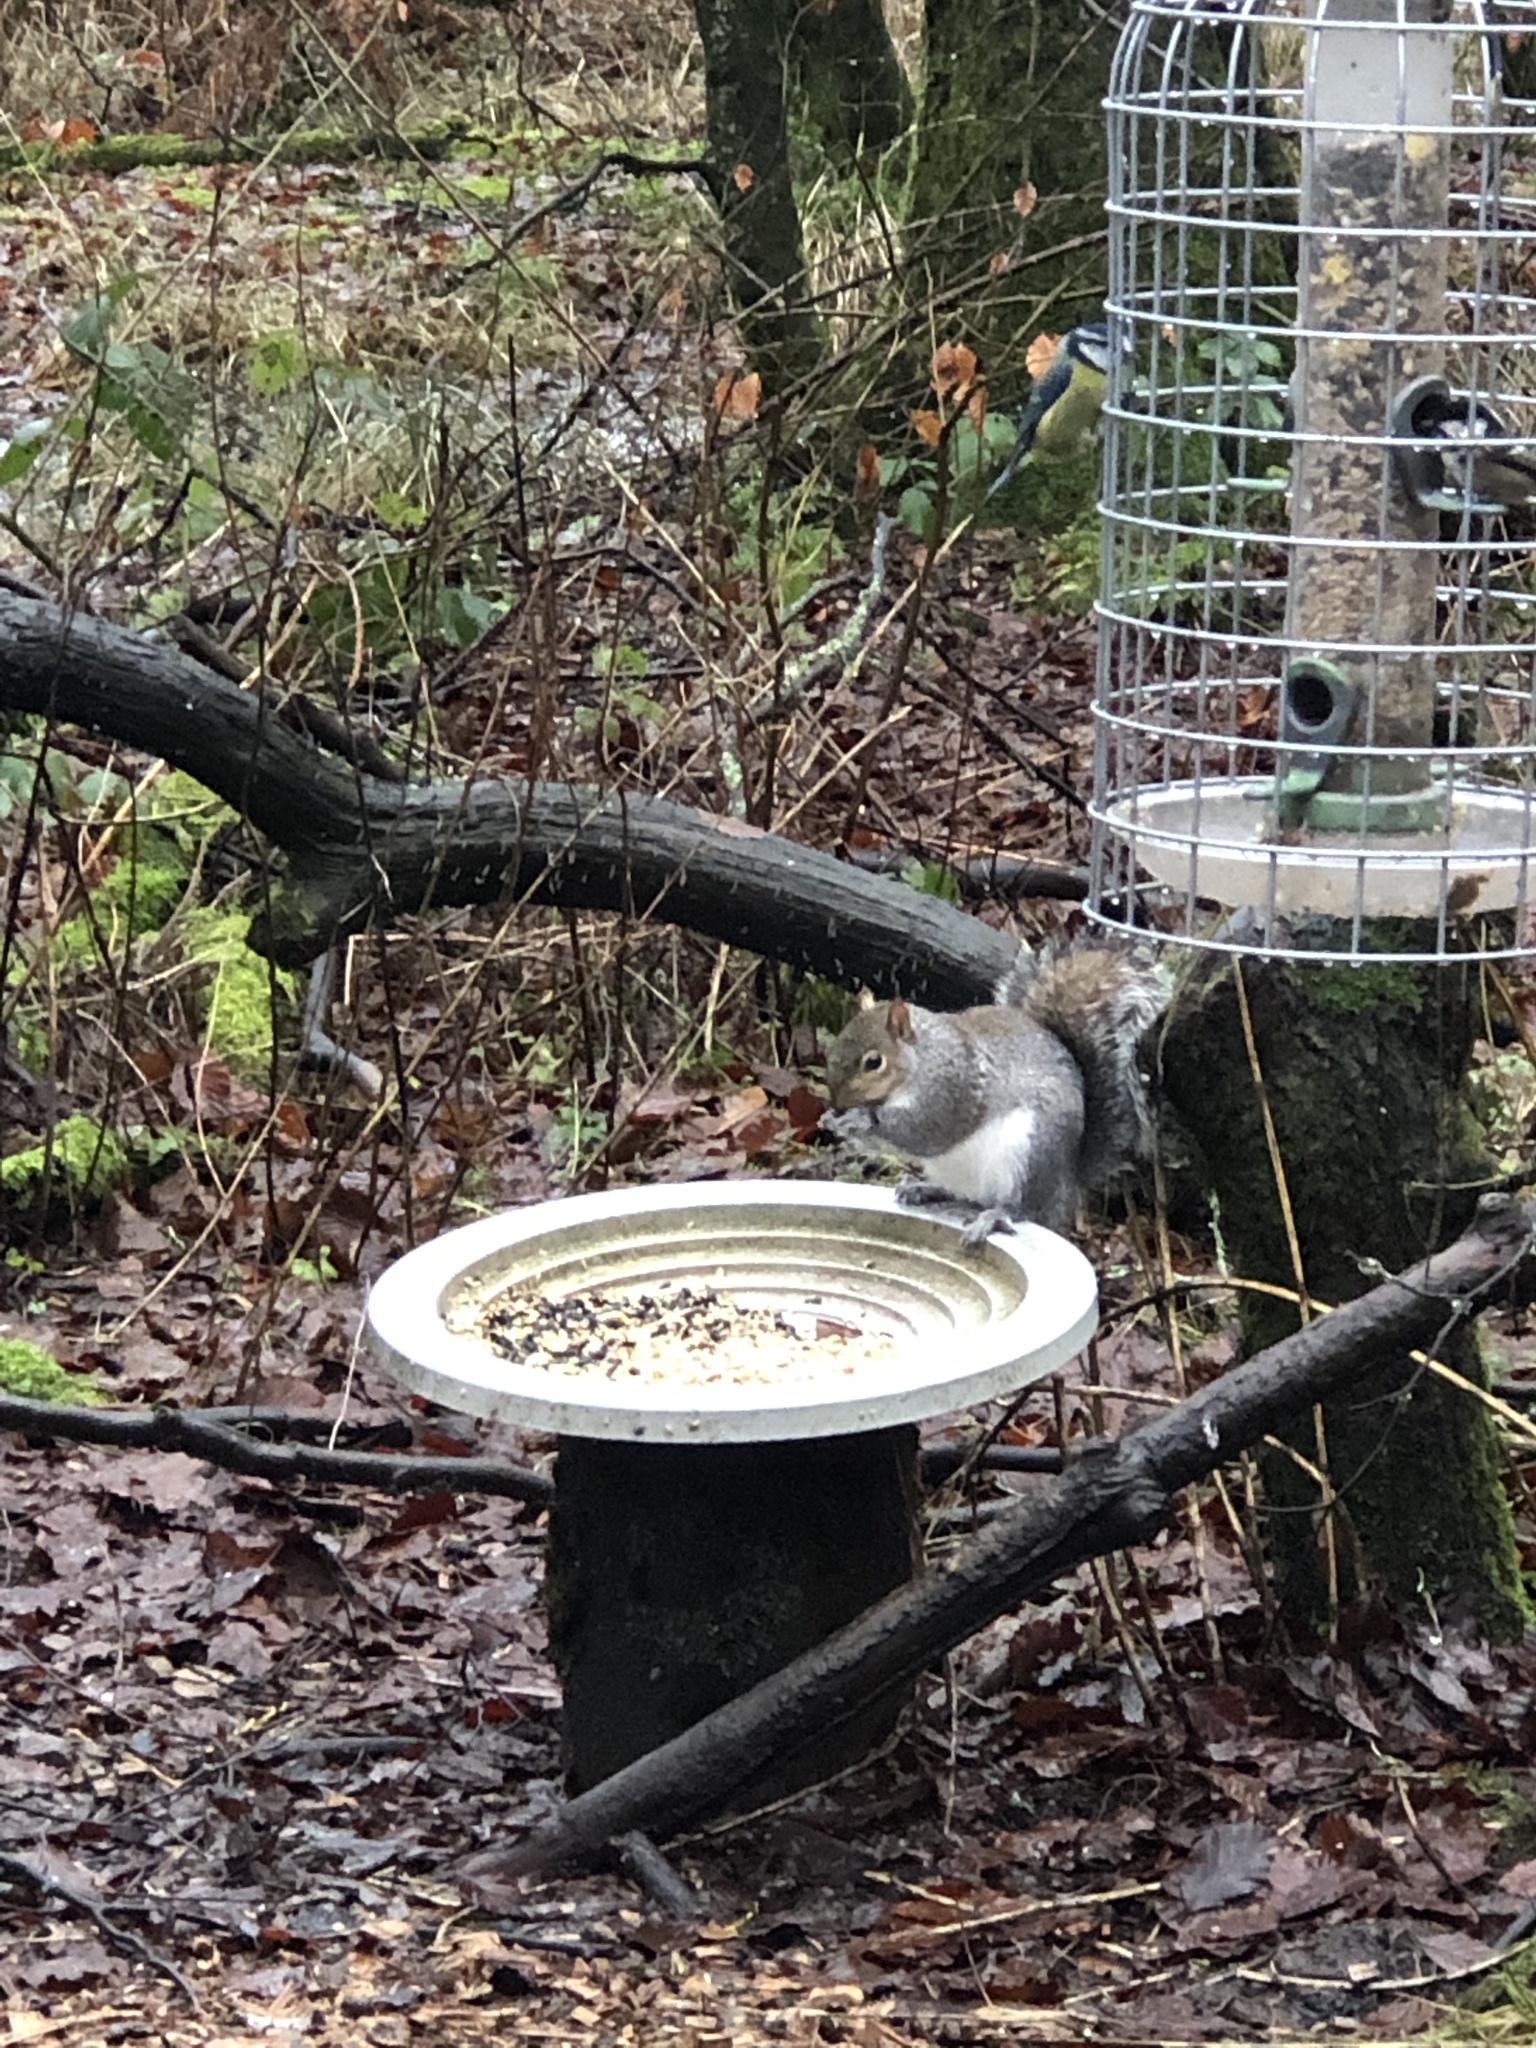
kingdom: Animalia
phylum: Chordata
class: Mammalia
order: Rodentia
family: Sciuridae
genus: Sciurus
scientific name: Sciurus carolinensis
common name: Eastern gray squirrel
